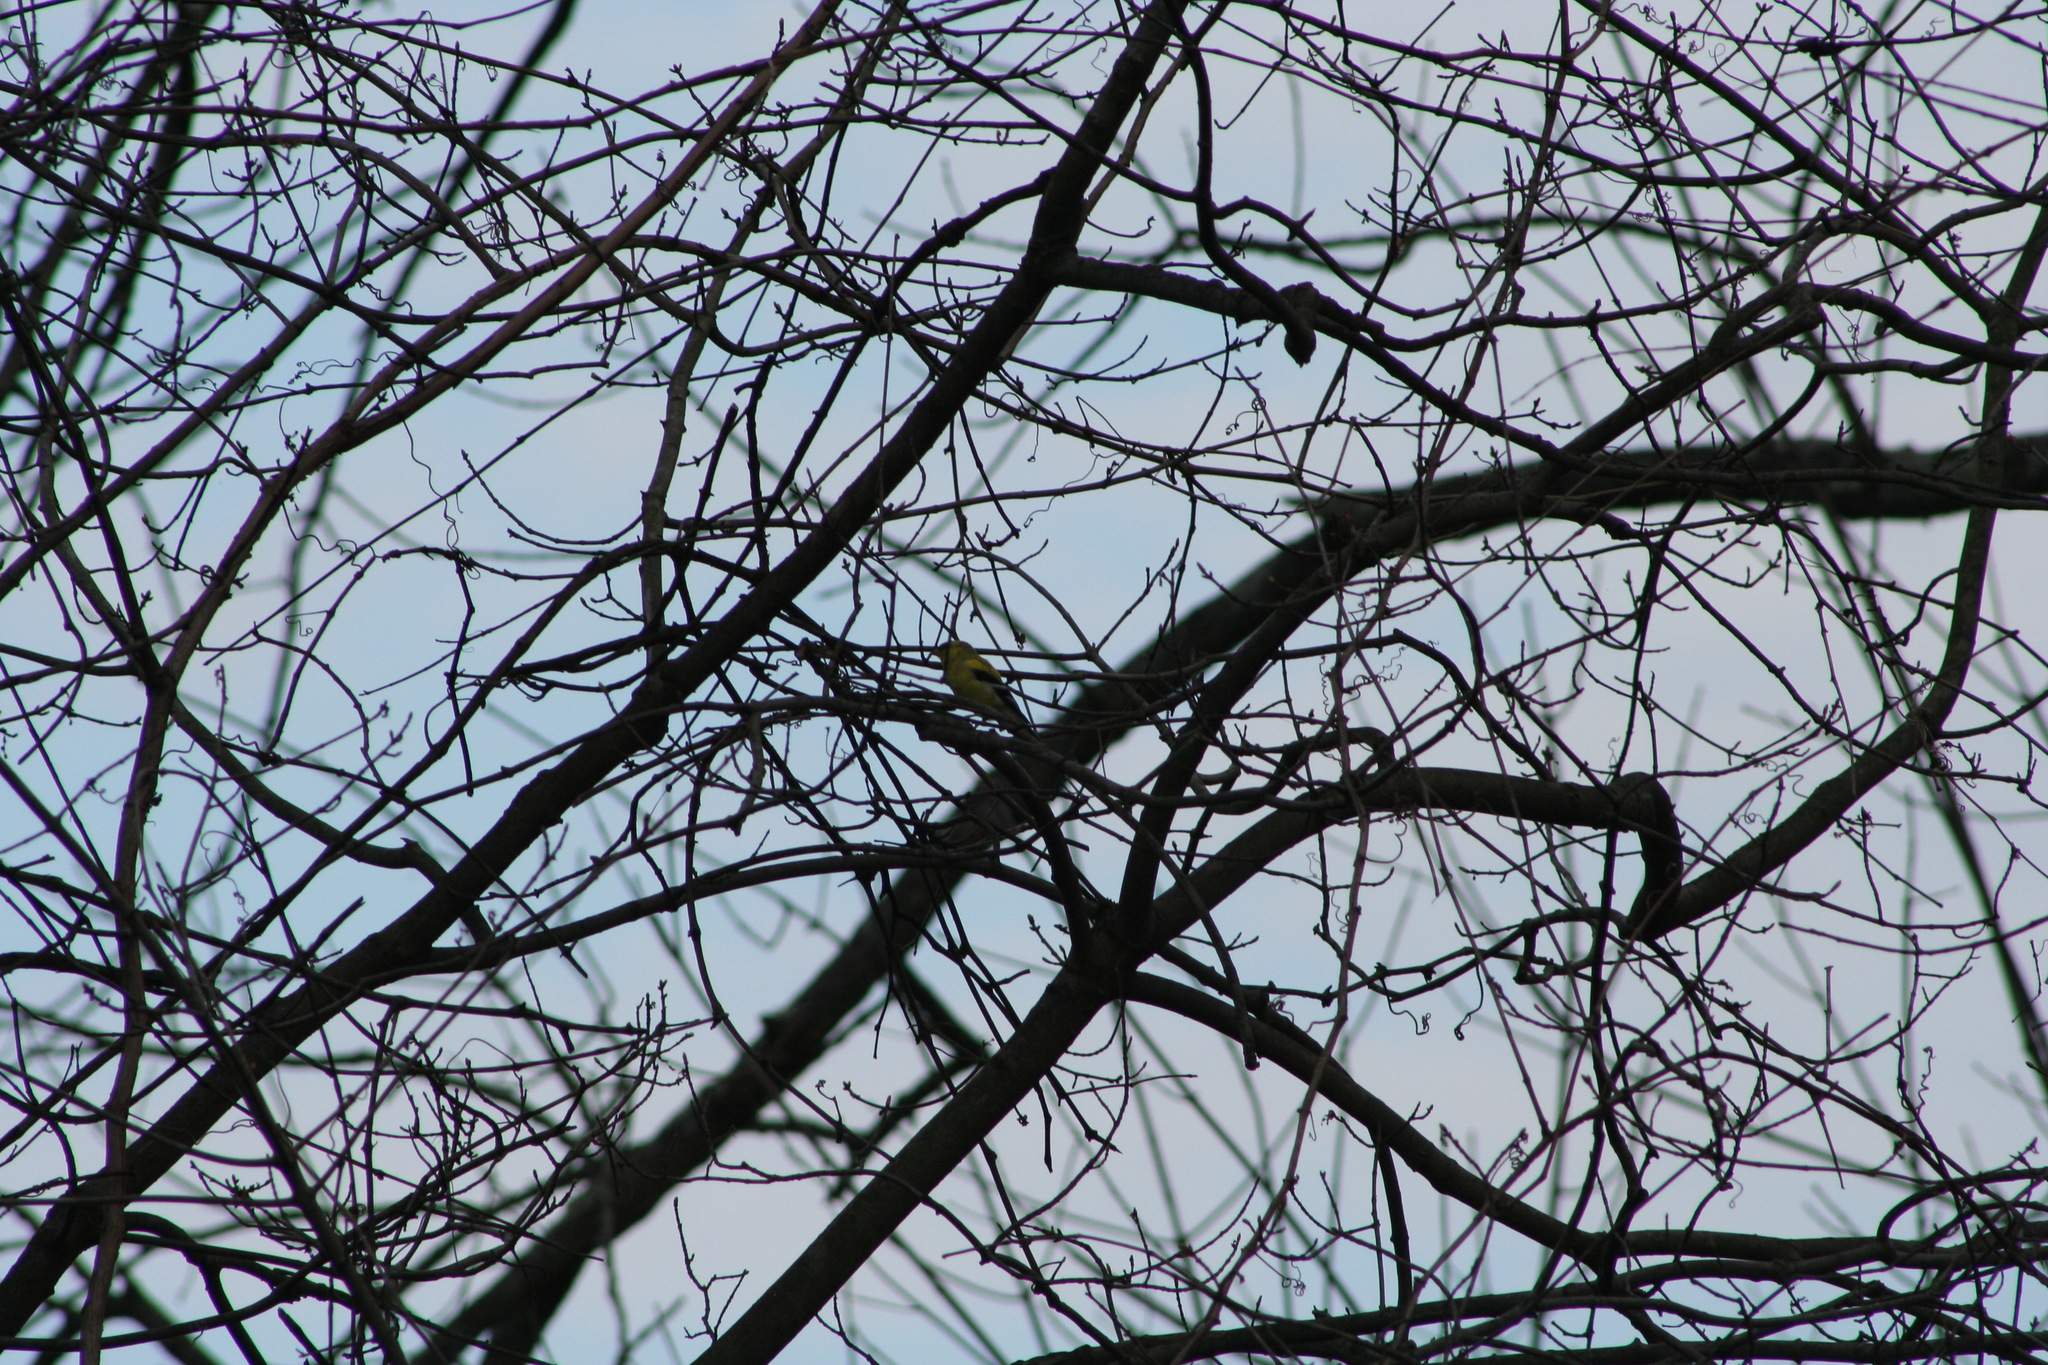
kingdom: Animalia
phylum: Chordata
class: Aves
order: Passeriformes
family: Fringillidae
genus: Spinus
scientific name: Spinus tristis
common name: American goldfinch
